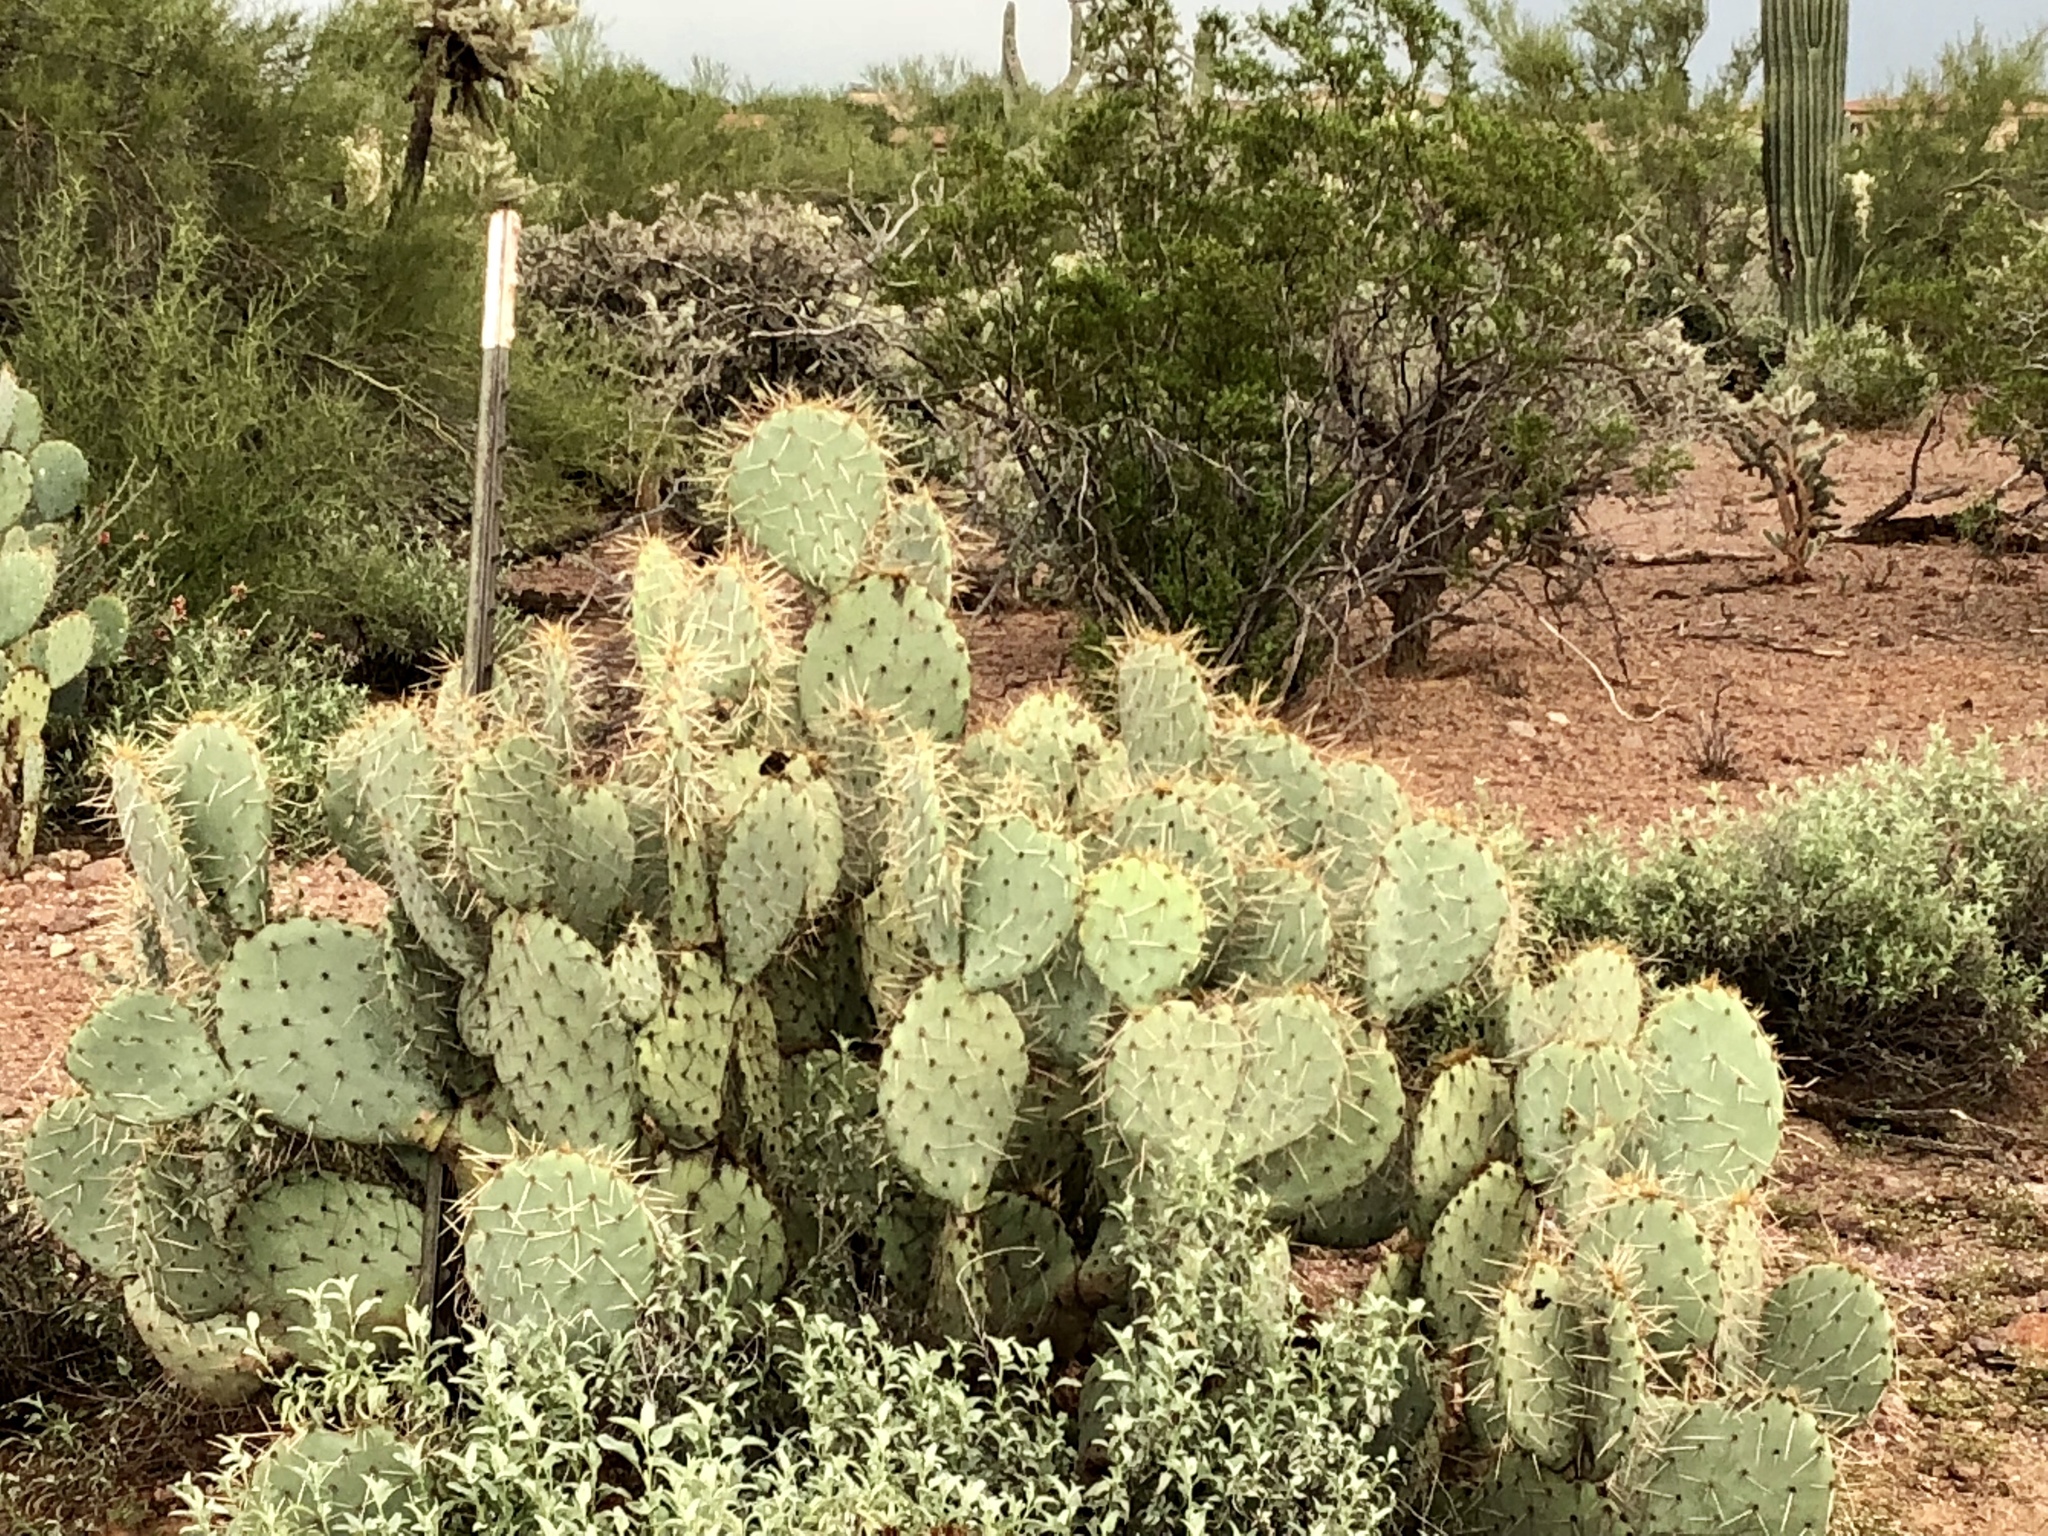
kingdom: Plantae
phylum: Tracheophyta
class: Magnoliopsida
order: Caryophyllales
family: Cactaceae
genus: Opuntia
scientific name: Opuntia engelmannii
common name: Cactus-apple
